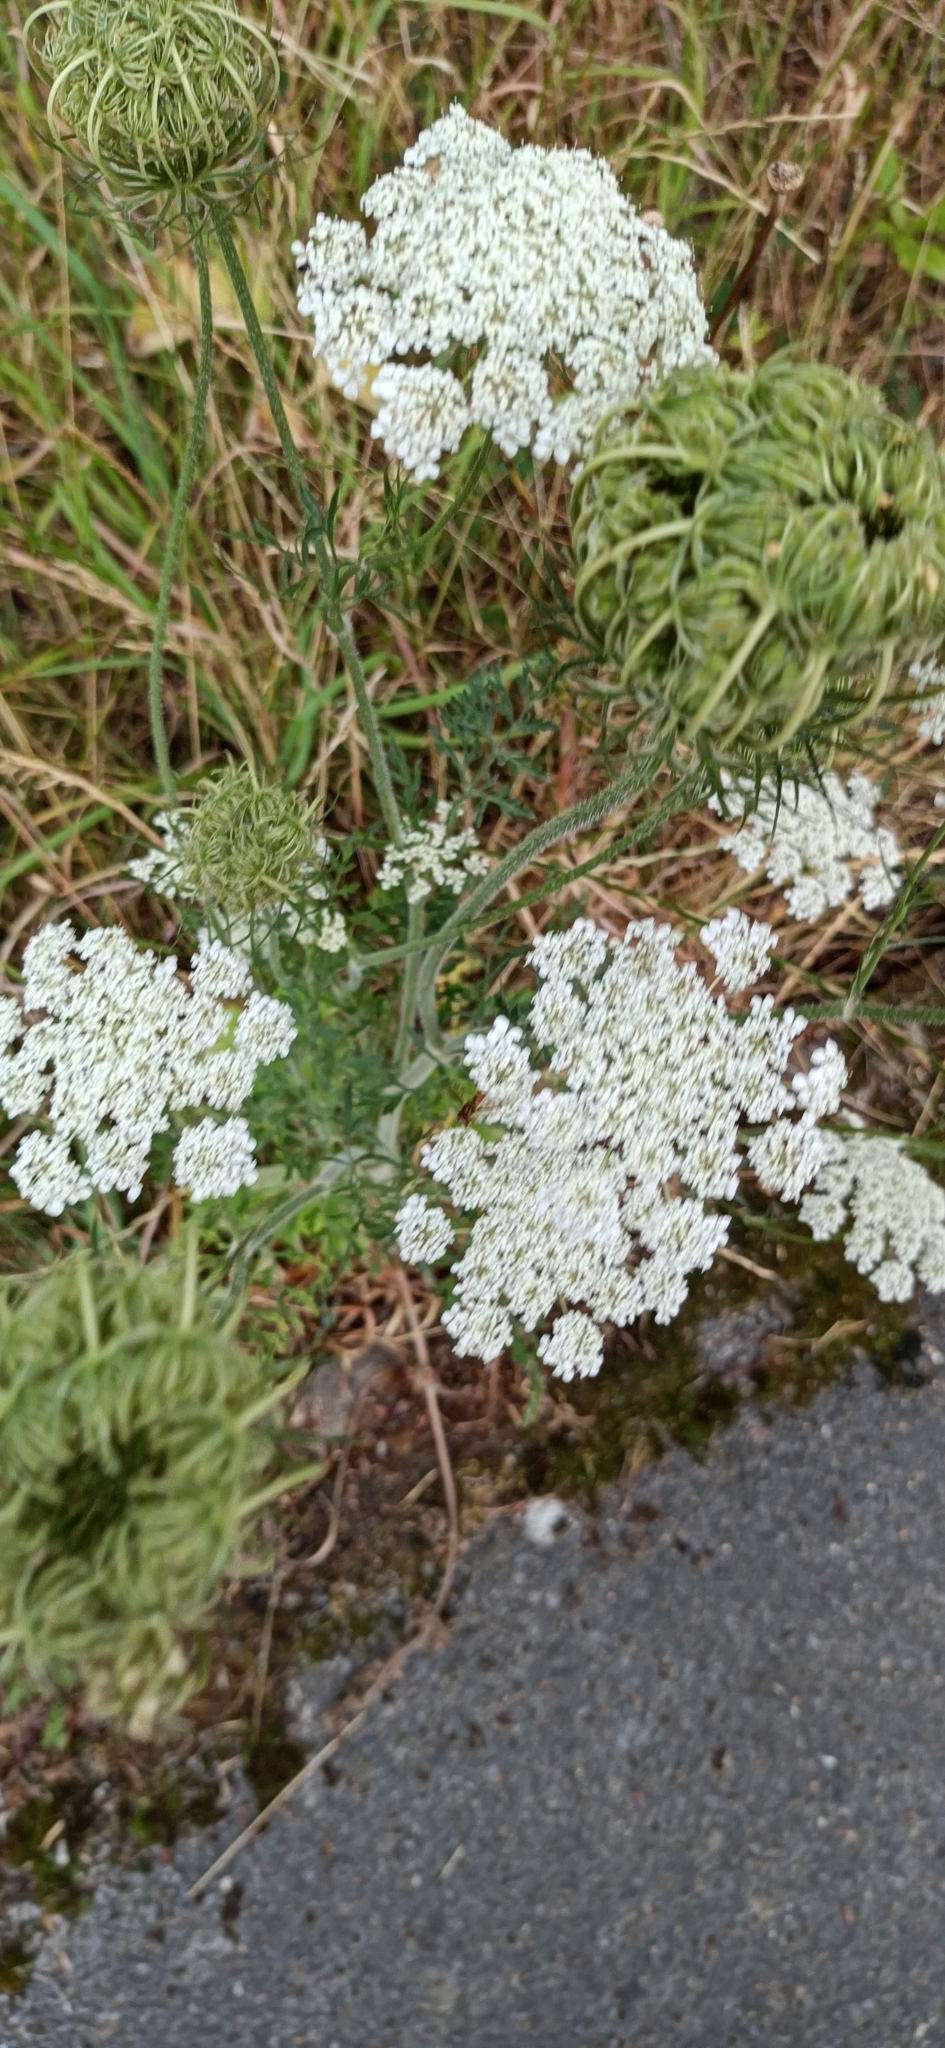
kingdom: Plantae
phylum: Tracheophyta
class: Magnoliopsida
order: Apiales
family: Apiaceae
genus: Daucus
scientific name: Daucus carota
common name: Wild carrot
